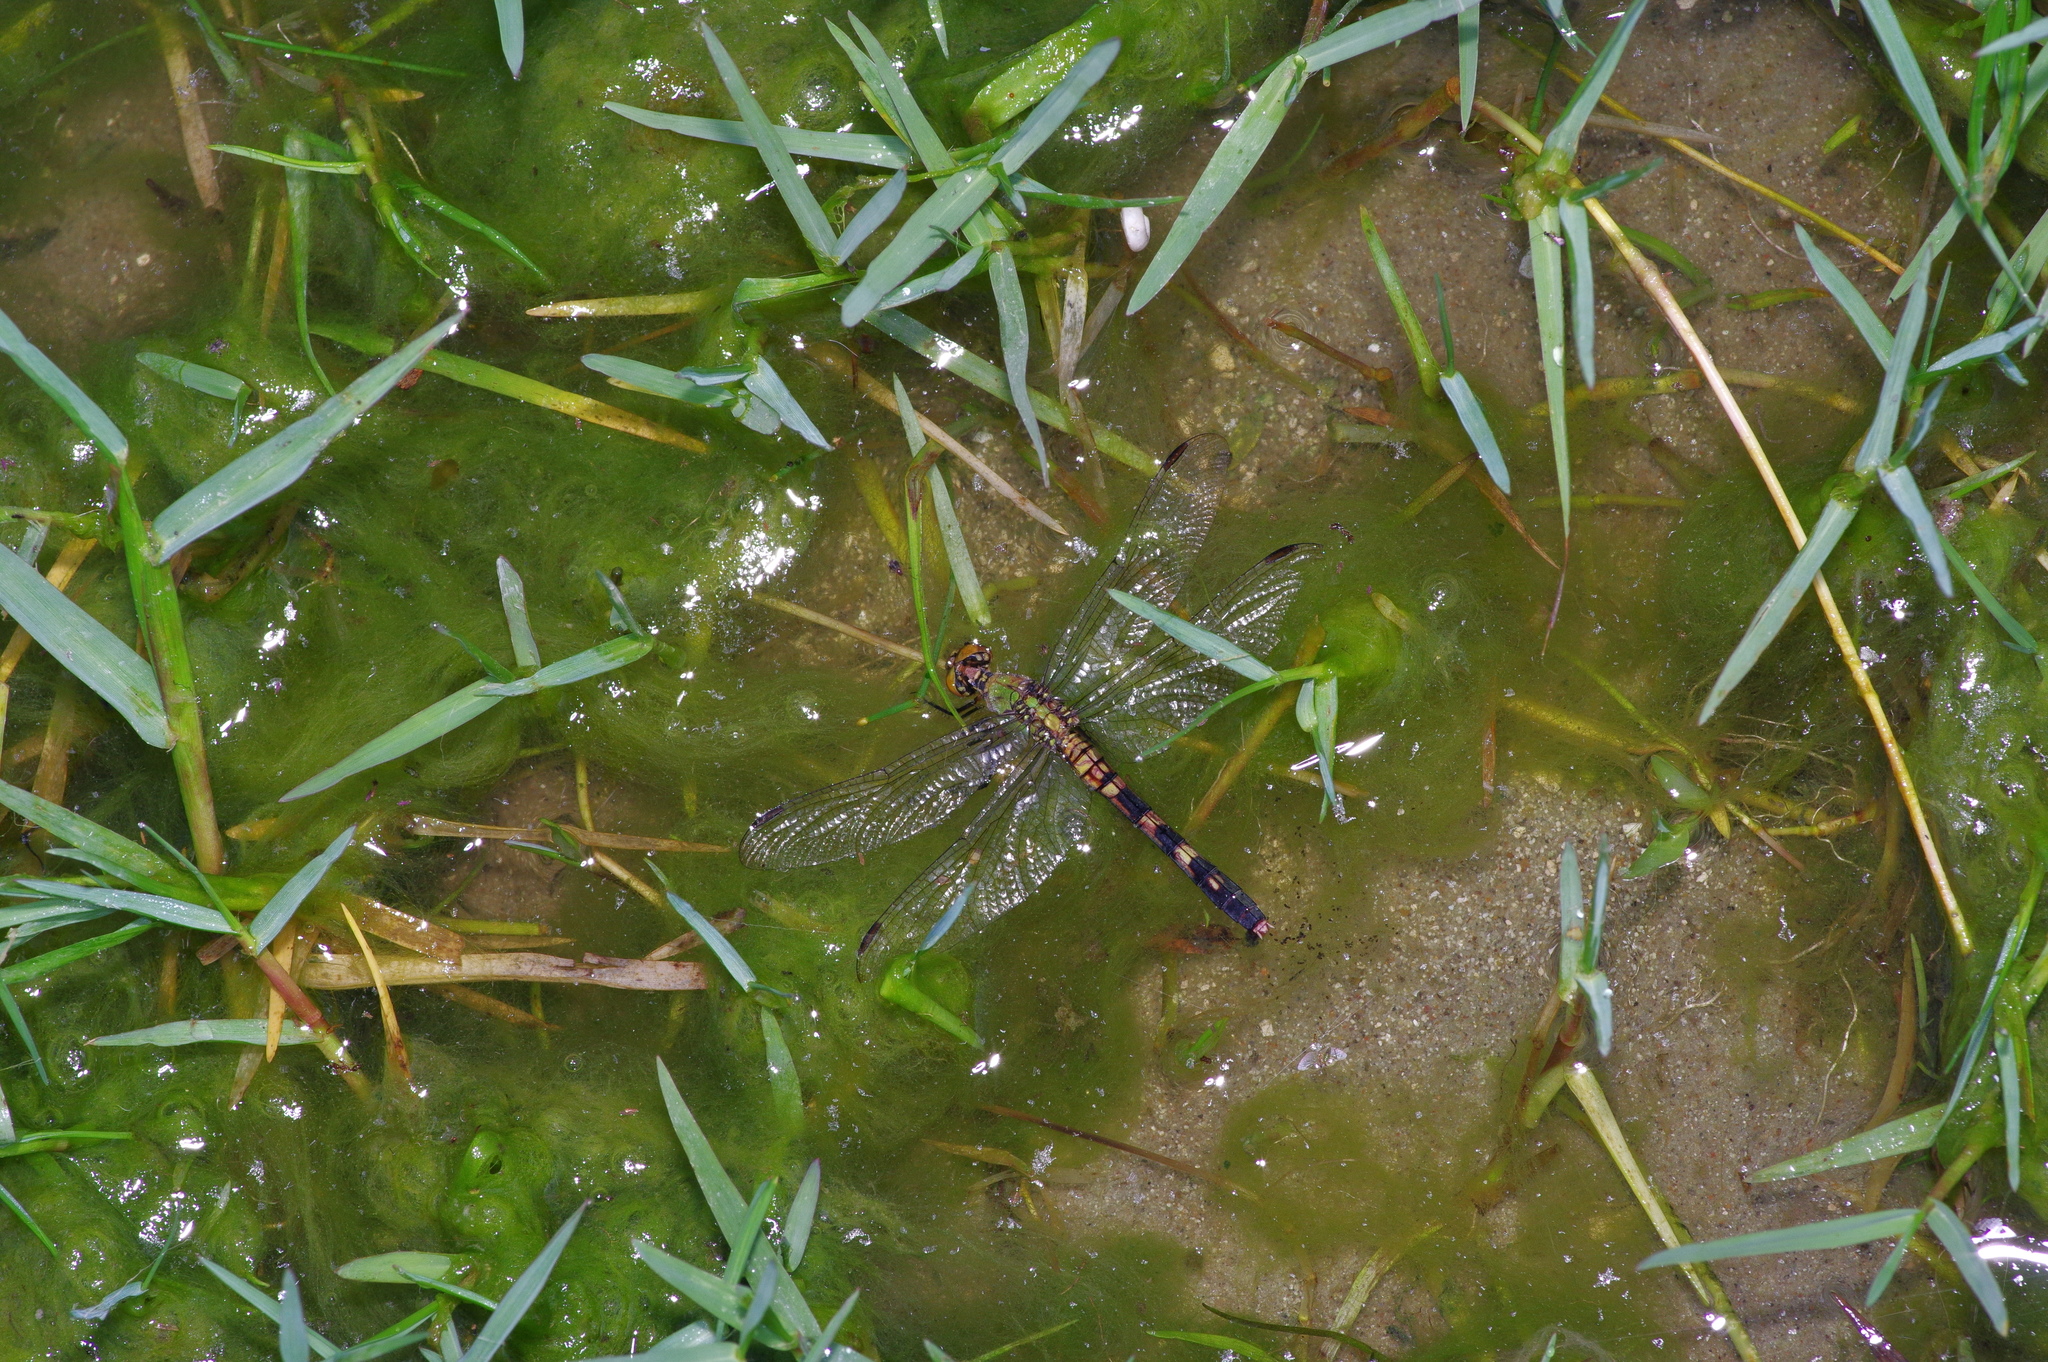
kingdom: Animalia
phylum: Arthropoda
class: Insecta
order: Odonata
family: Libellulidae
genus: Erythemis
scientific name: Erythemis simplicicollis
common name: Eastern pondhawk
